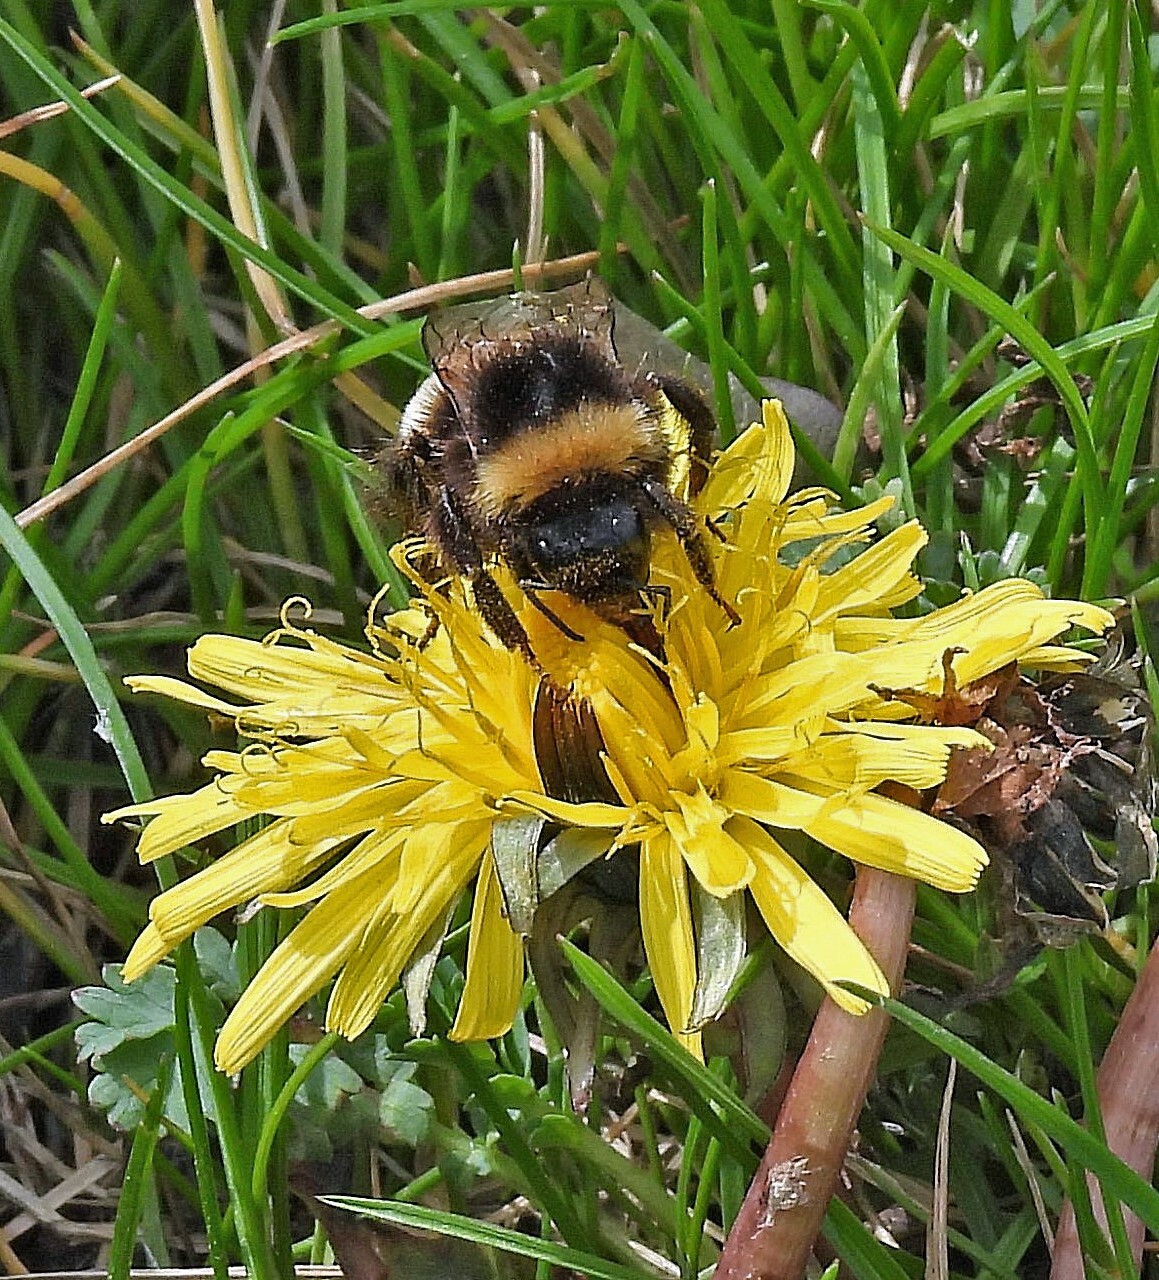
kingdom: Animalia
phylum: Arthropoda
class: Insecta
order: Hymenoptera
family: Apidae
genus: Bombus
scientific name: Bombus terrestris
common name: Buff-tailed bumblebee
